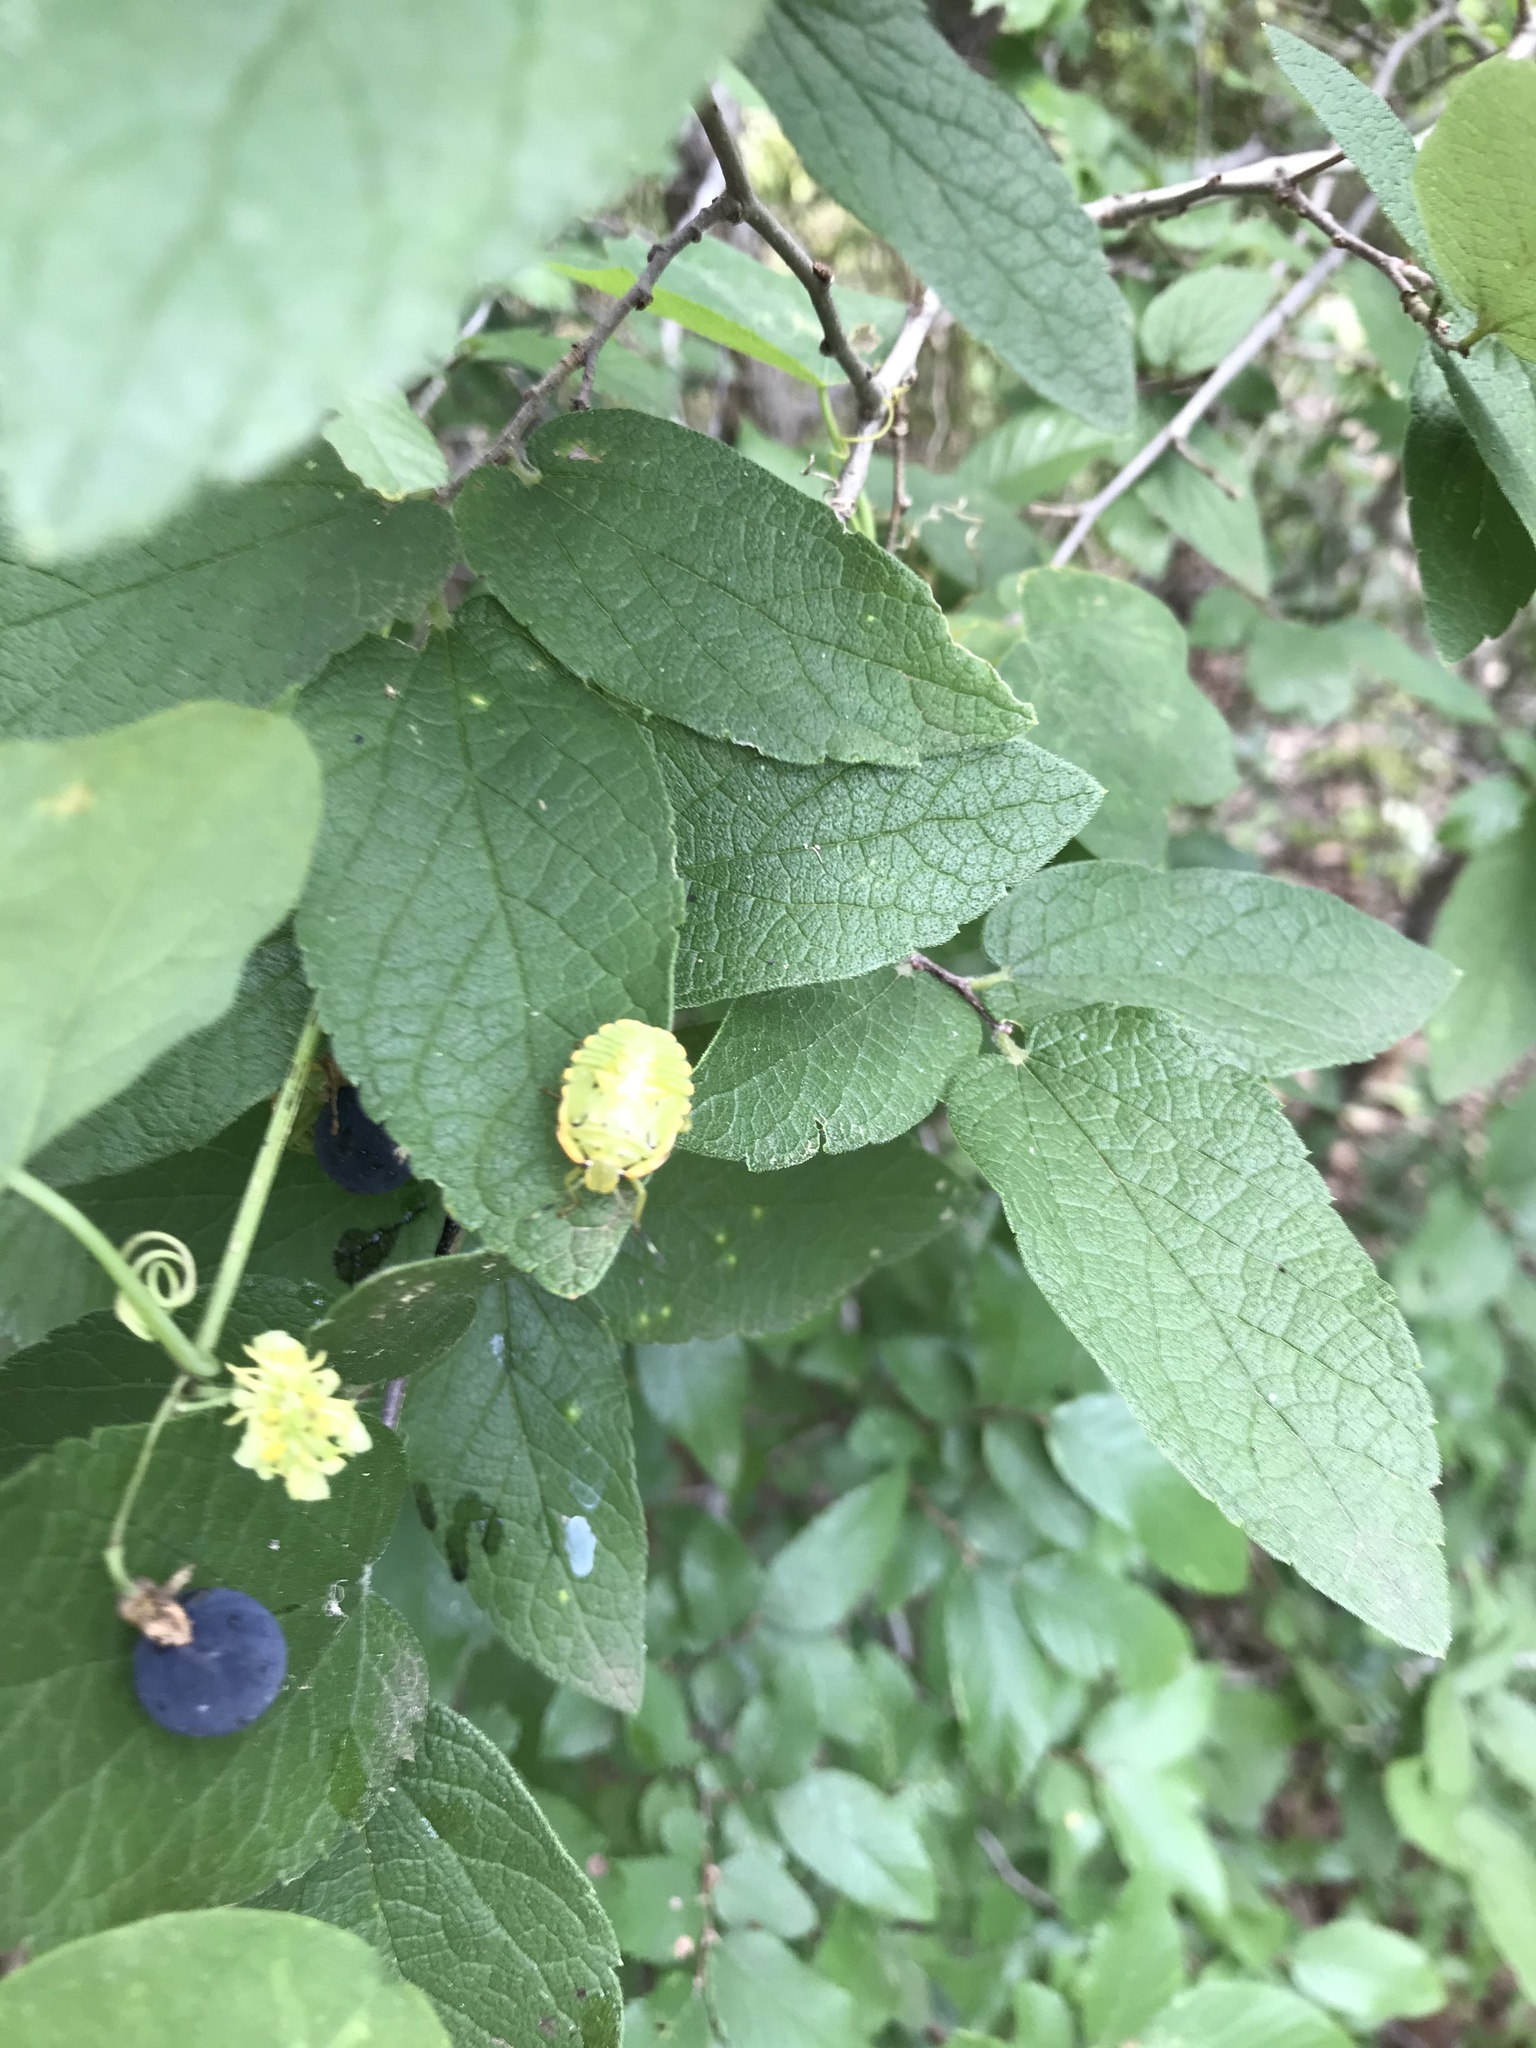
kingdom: Animalia
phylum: Arthropoda
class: Insecta
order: Hemiptera
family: Pentatomidae
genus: Chinavia
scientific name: Chinavia hilaris
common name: Green stink bug
